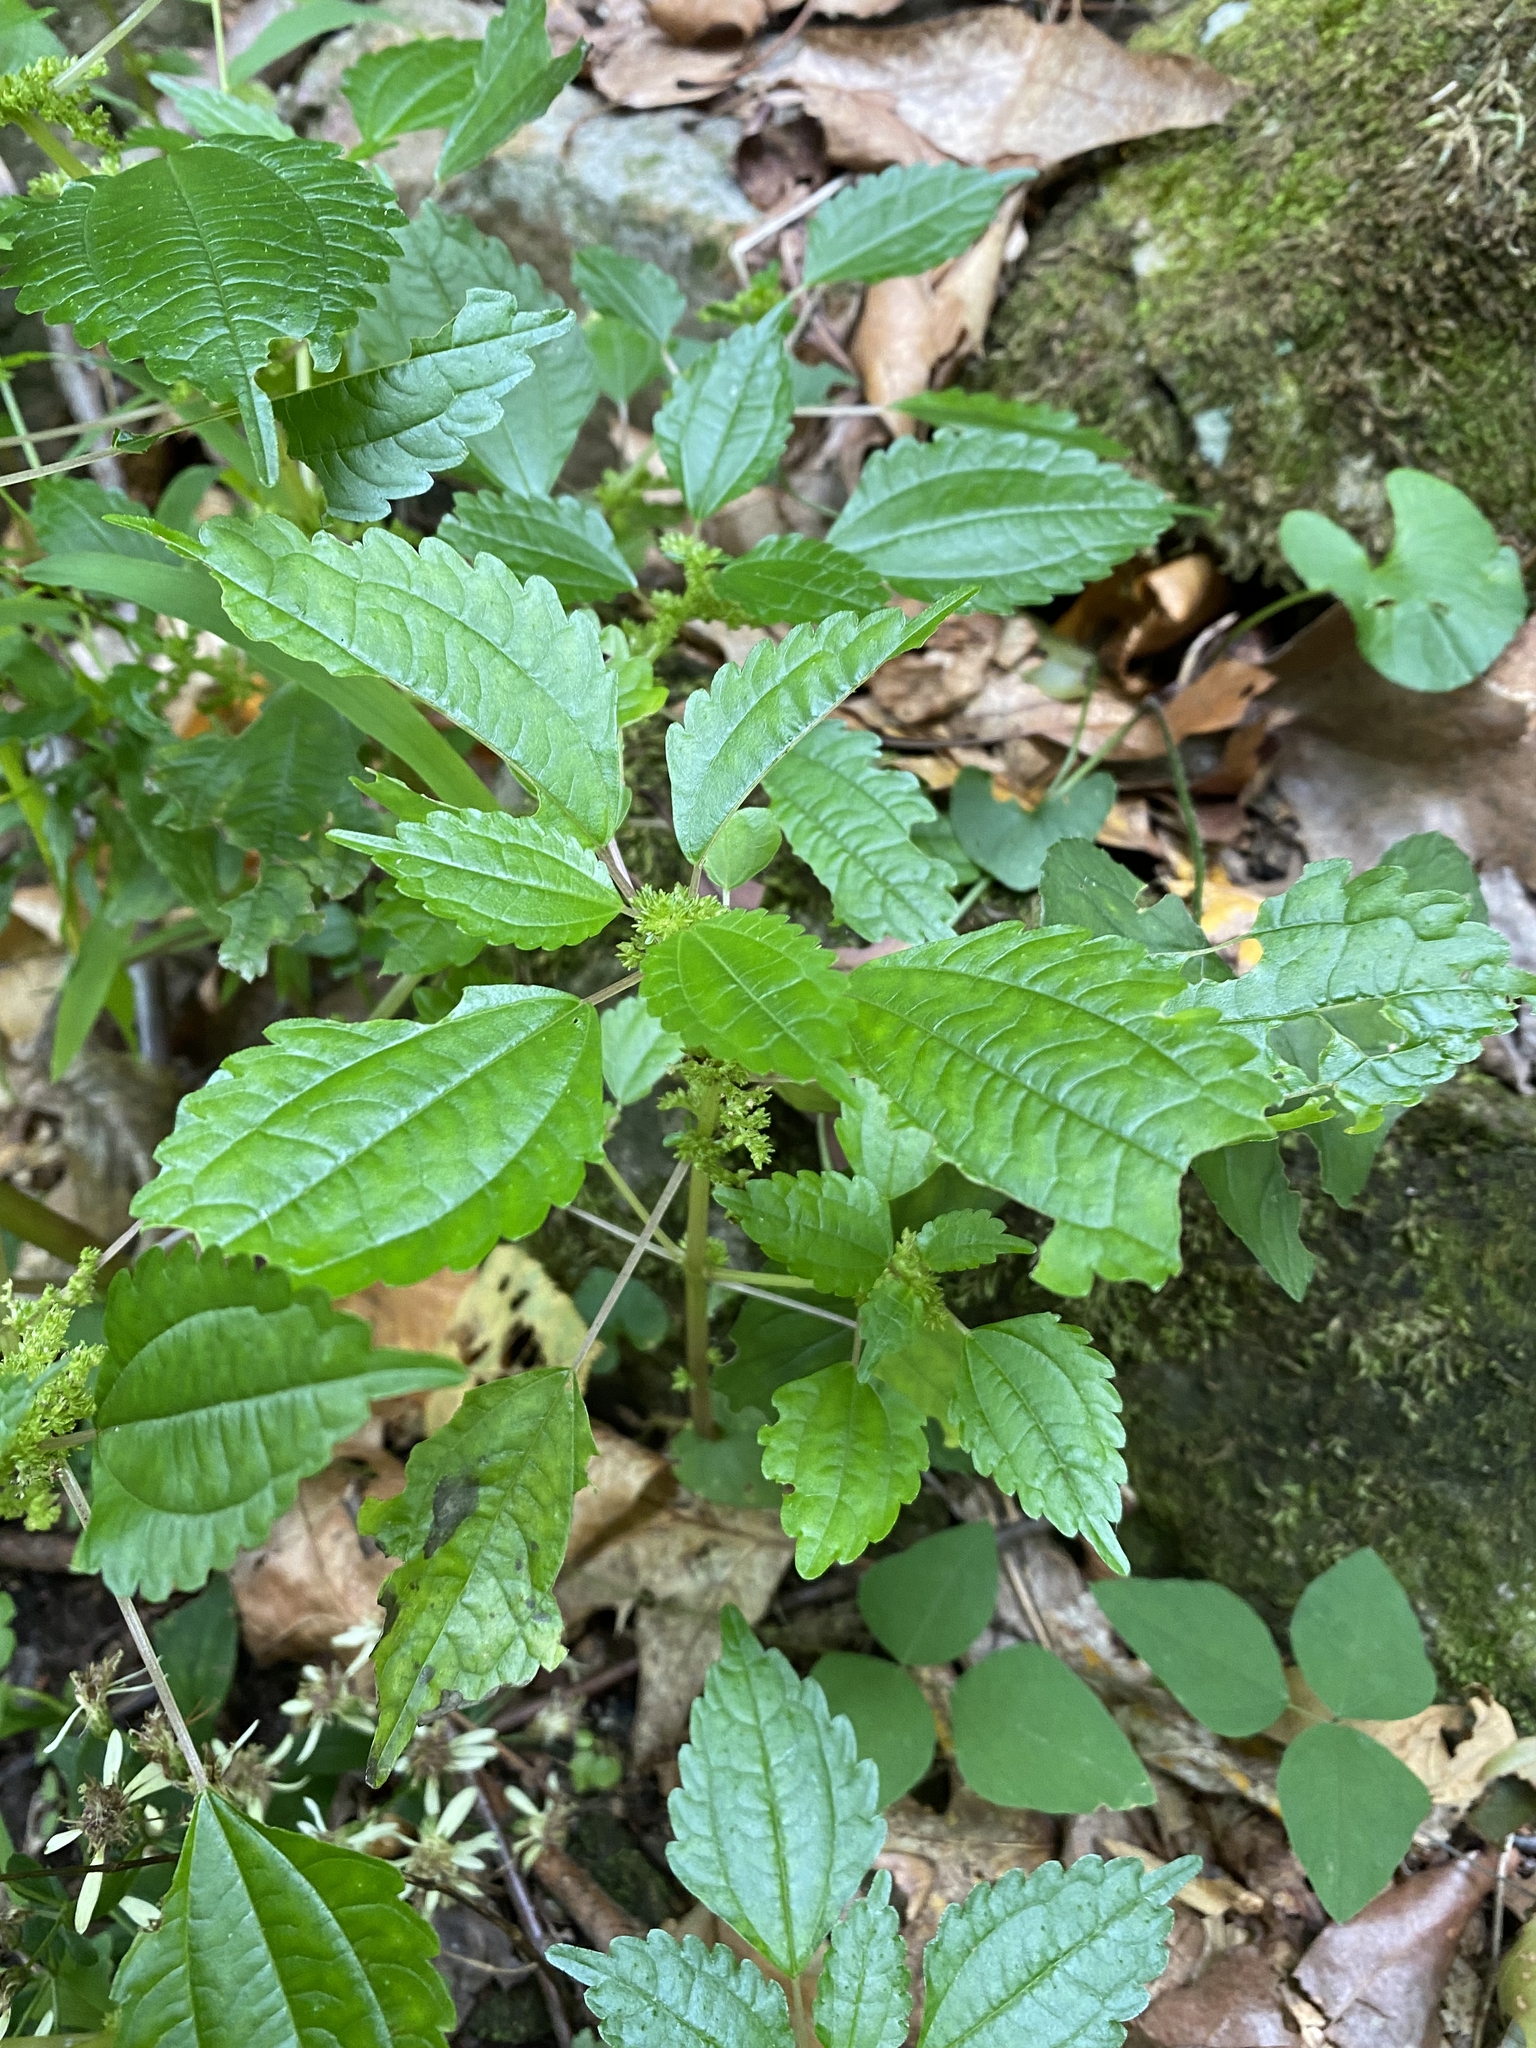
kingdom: Plantae
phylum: Tracheophyta
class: Magnoliopsida
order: Rosales
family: Urticaceae
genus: Pilea
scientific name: Pilea pumila
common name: Clearweed
